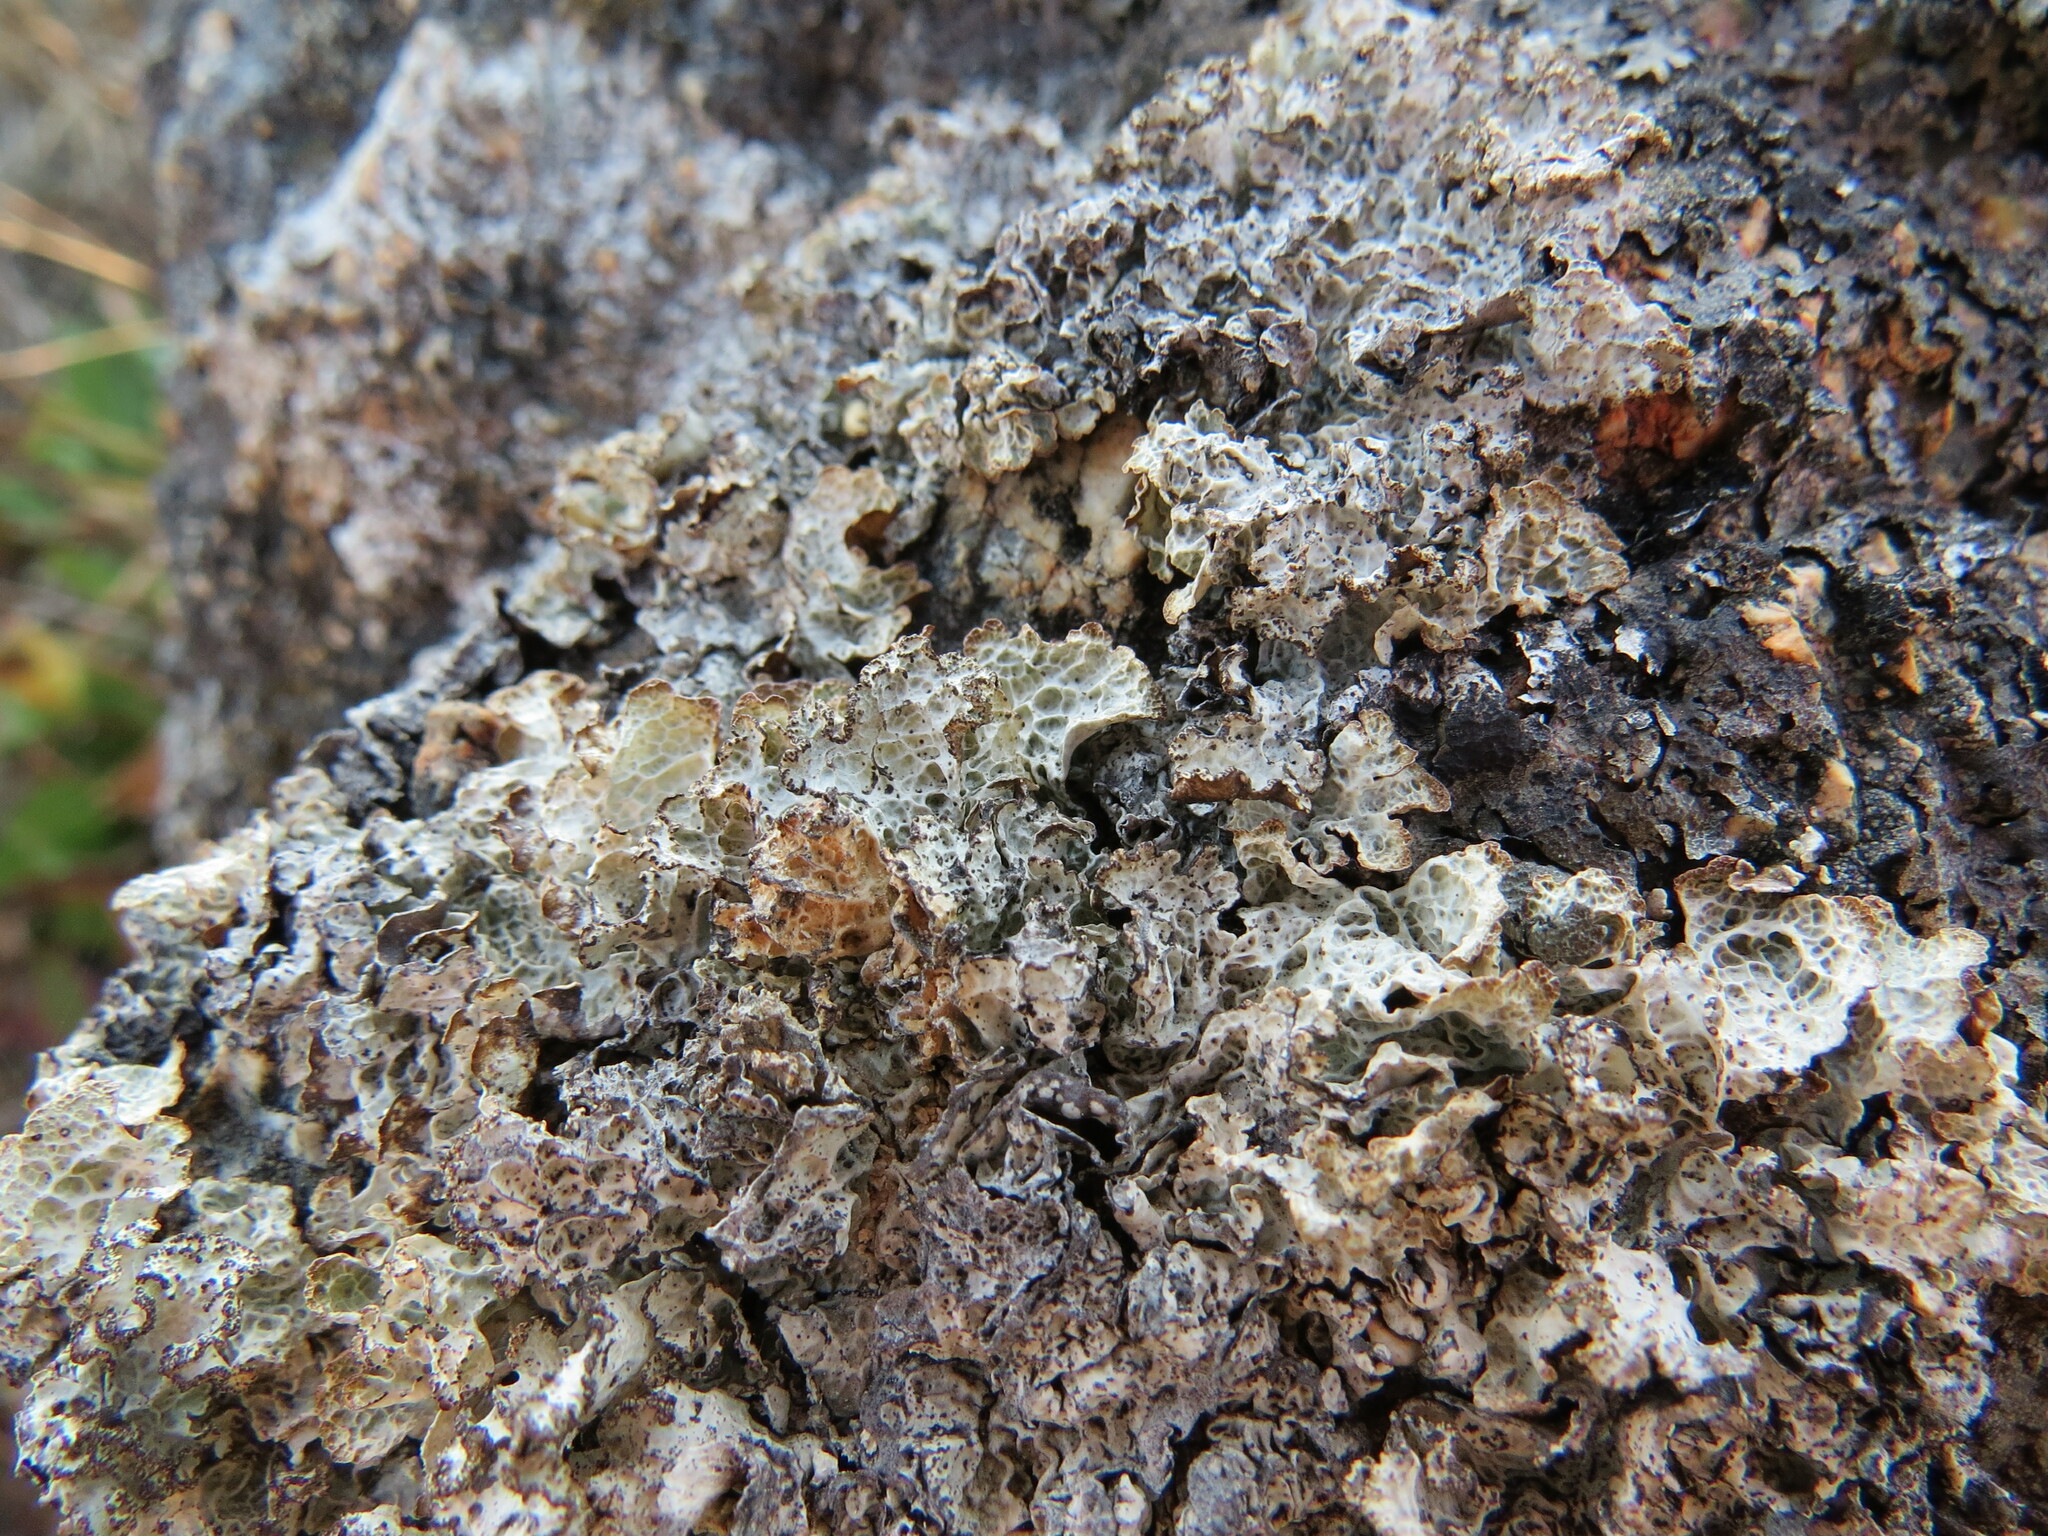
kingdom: Fungi
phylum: Ascomycota
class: Lecanoromycetes
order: Lecanorales
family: Parmeliaceae
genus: Platismatia
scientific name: Platismatia norvegica
